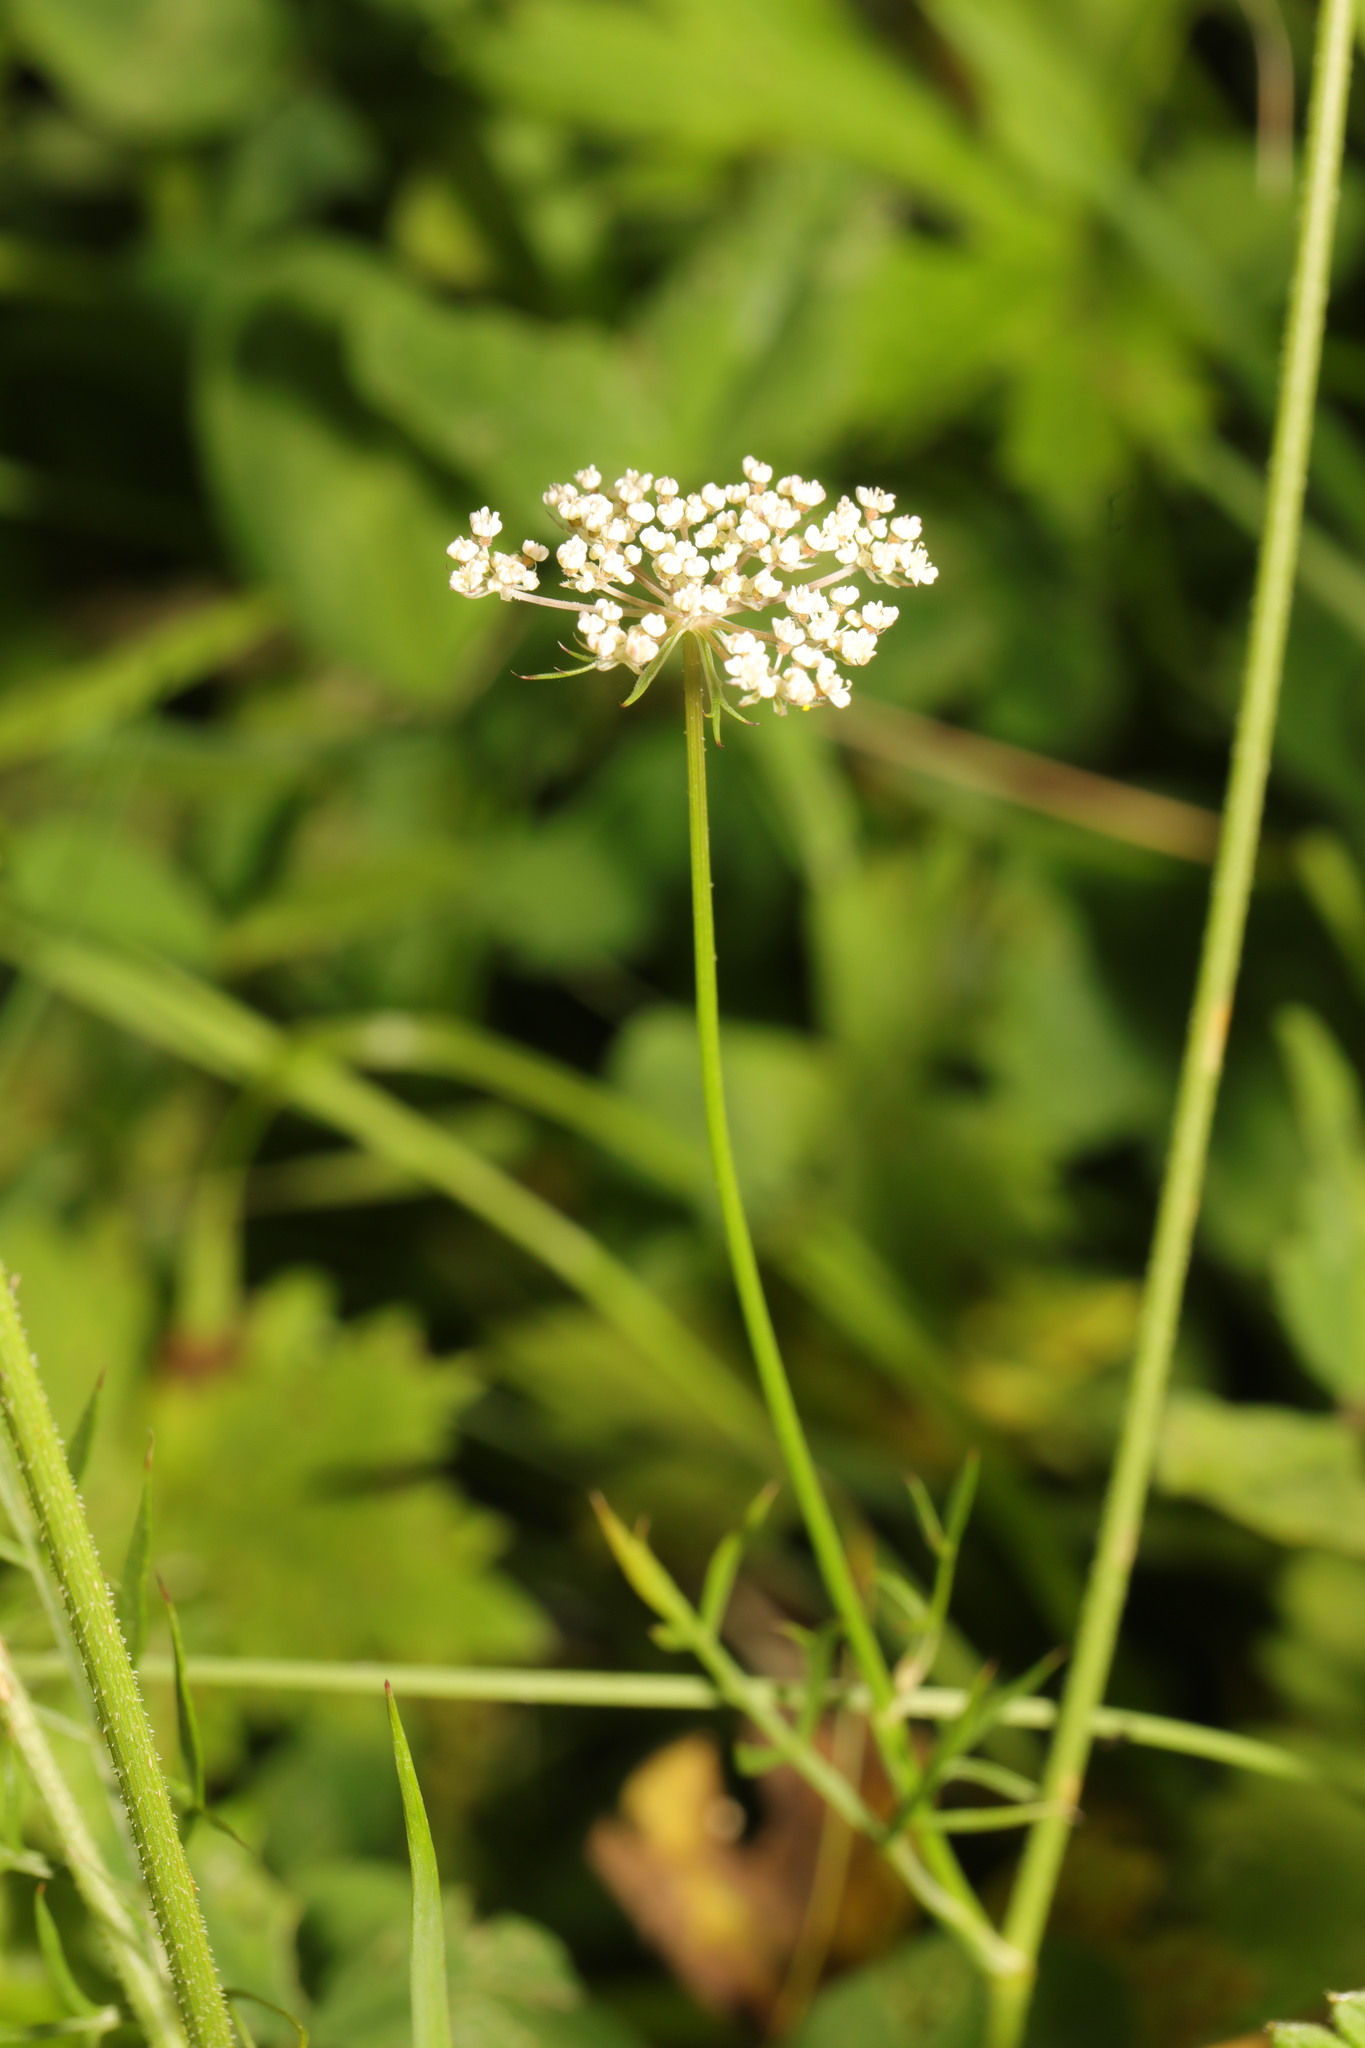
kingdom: Plantae
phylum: Tracheophyta
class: Magnoliopsida
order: Apiales
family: Apiaceae
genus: Conopodium
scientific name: Conopodium majus
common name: Pignut
